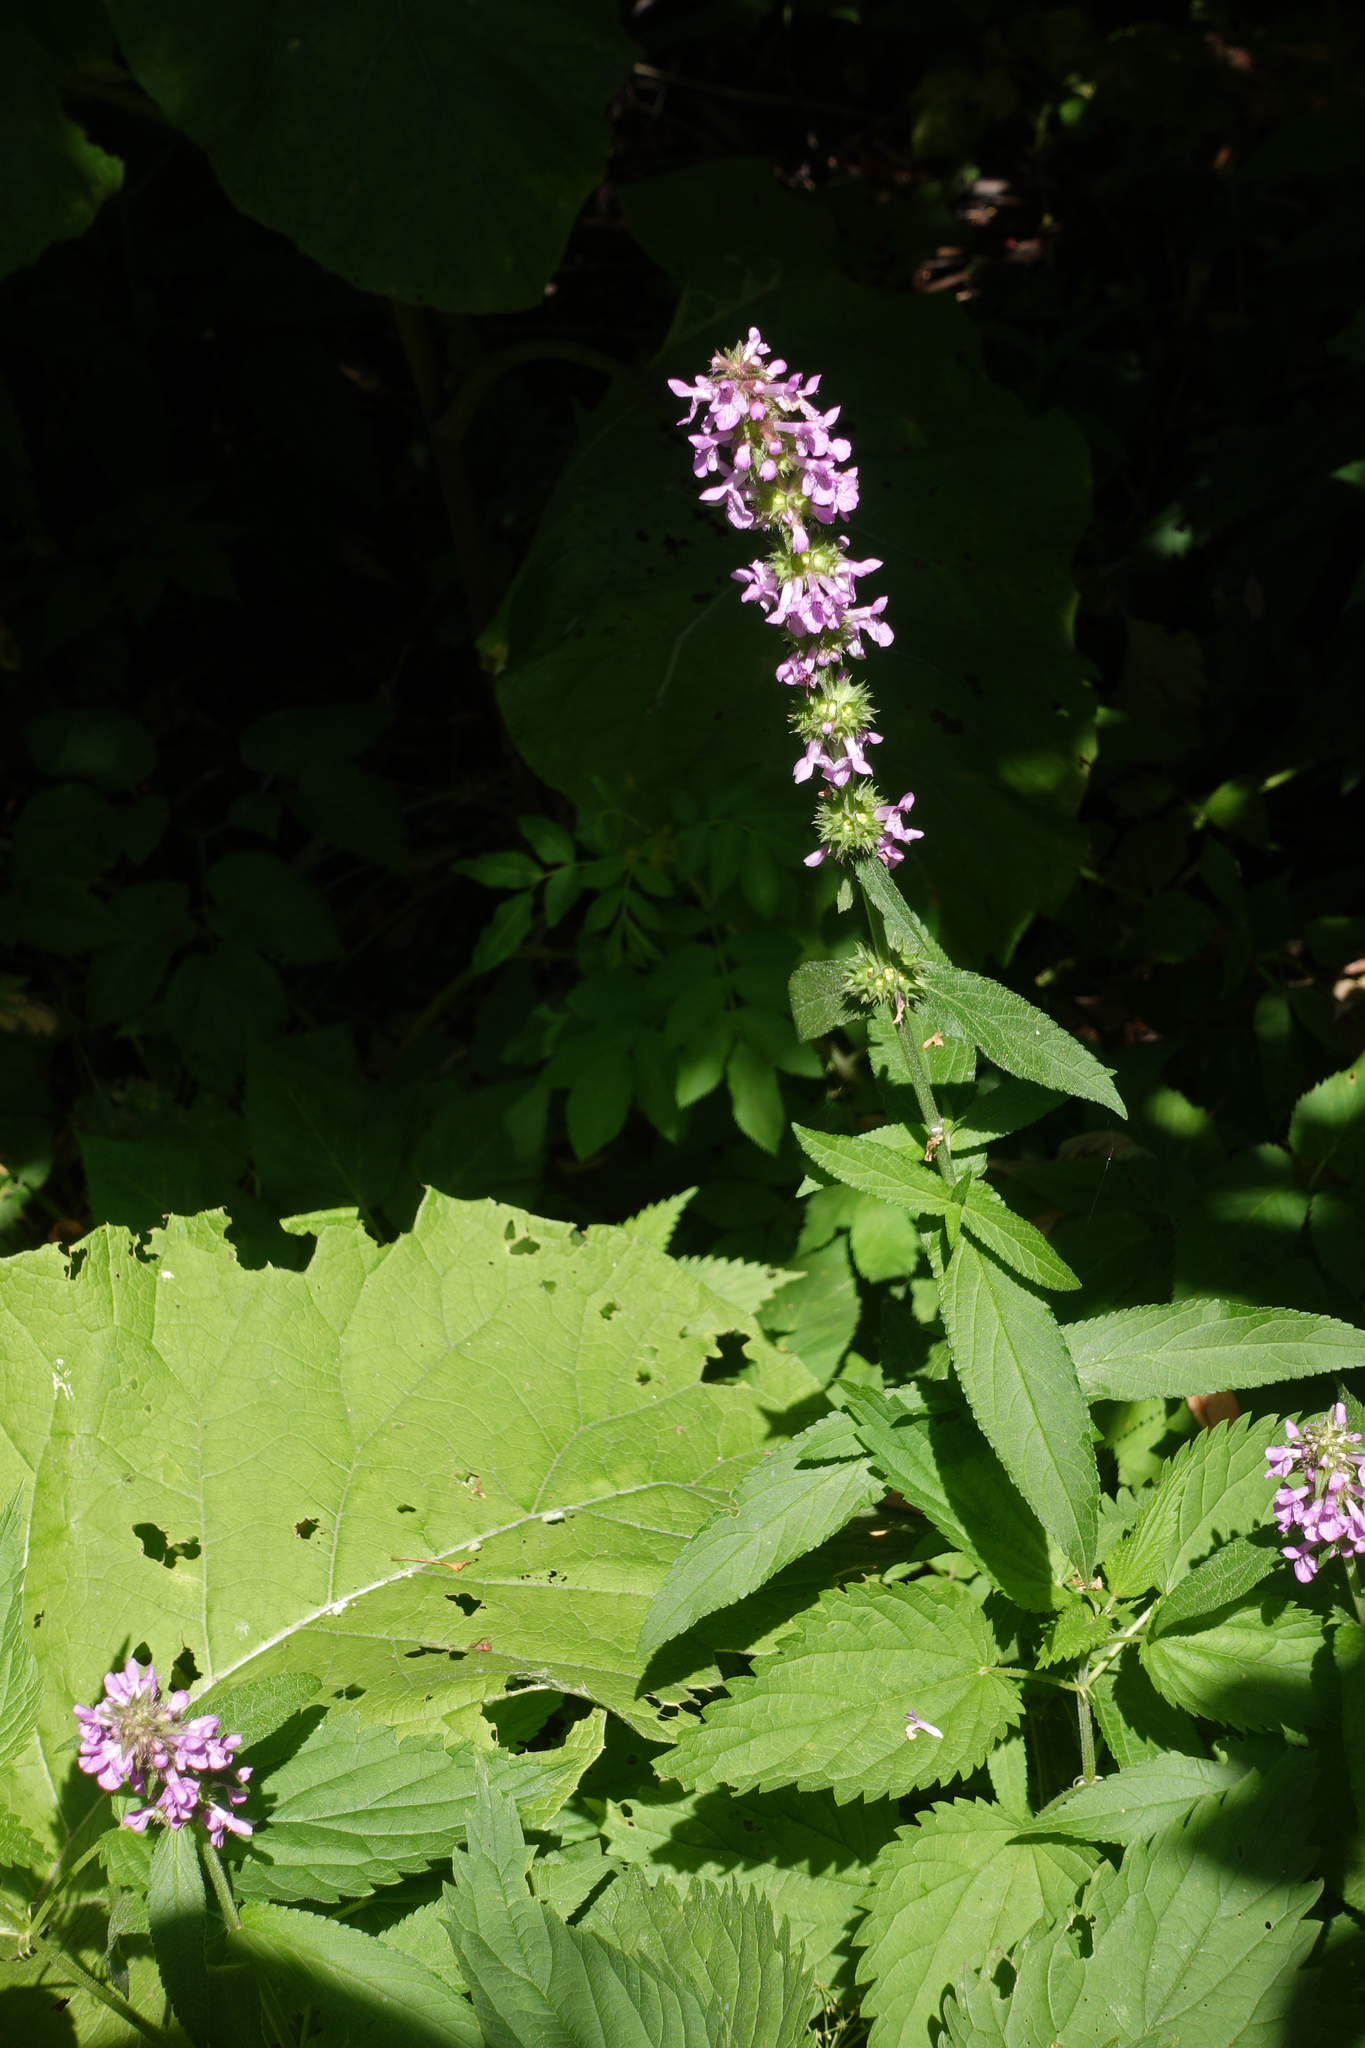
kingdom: Plantae
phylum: Tracheophyta
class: Magnoliopsida
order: Lamiales
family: Lamiaceae
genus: Stachys
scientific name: Stachys palustris
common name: Marsh woundwort
